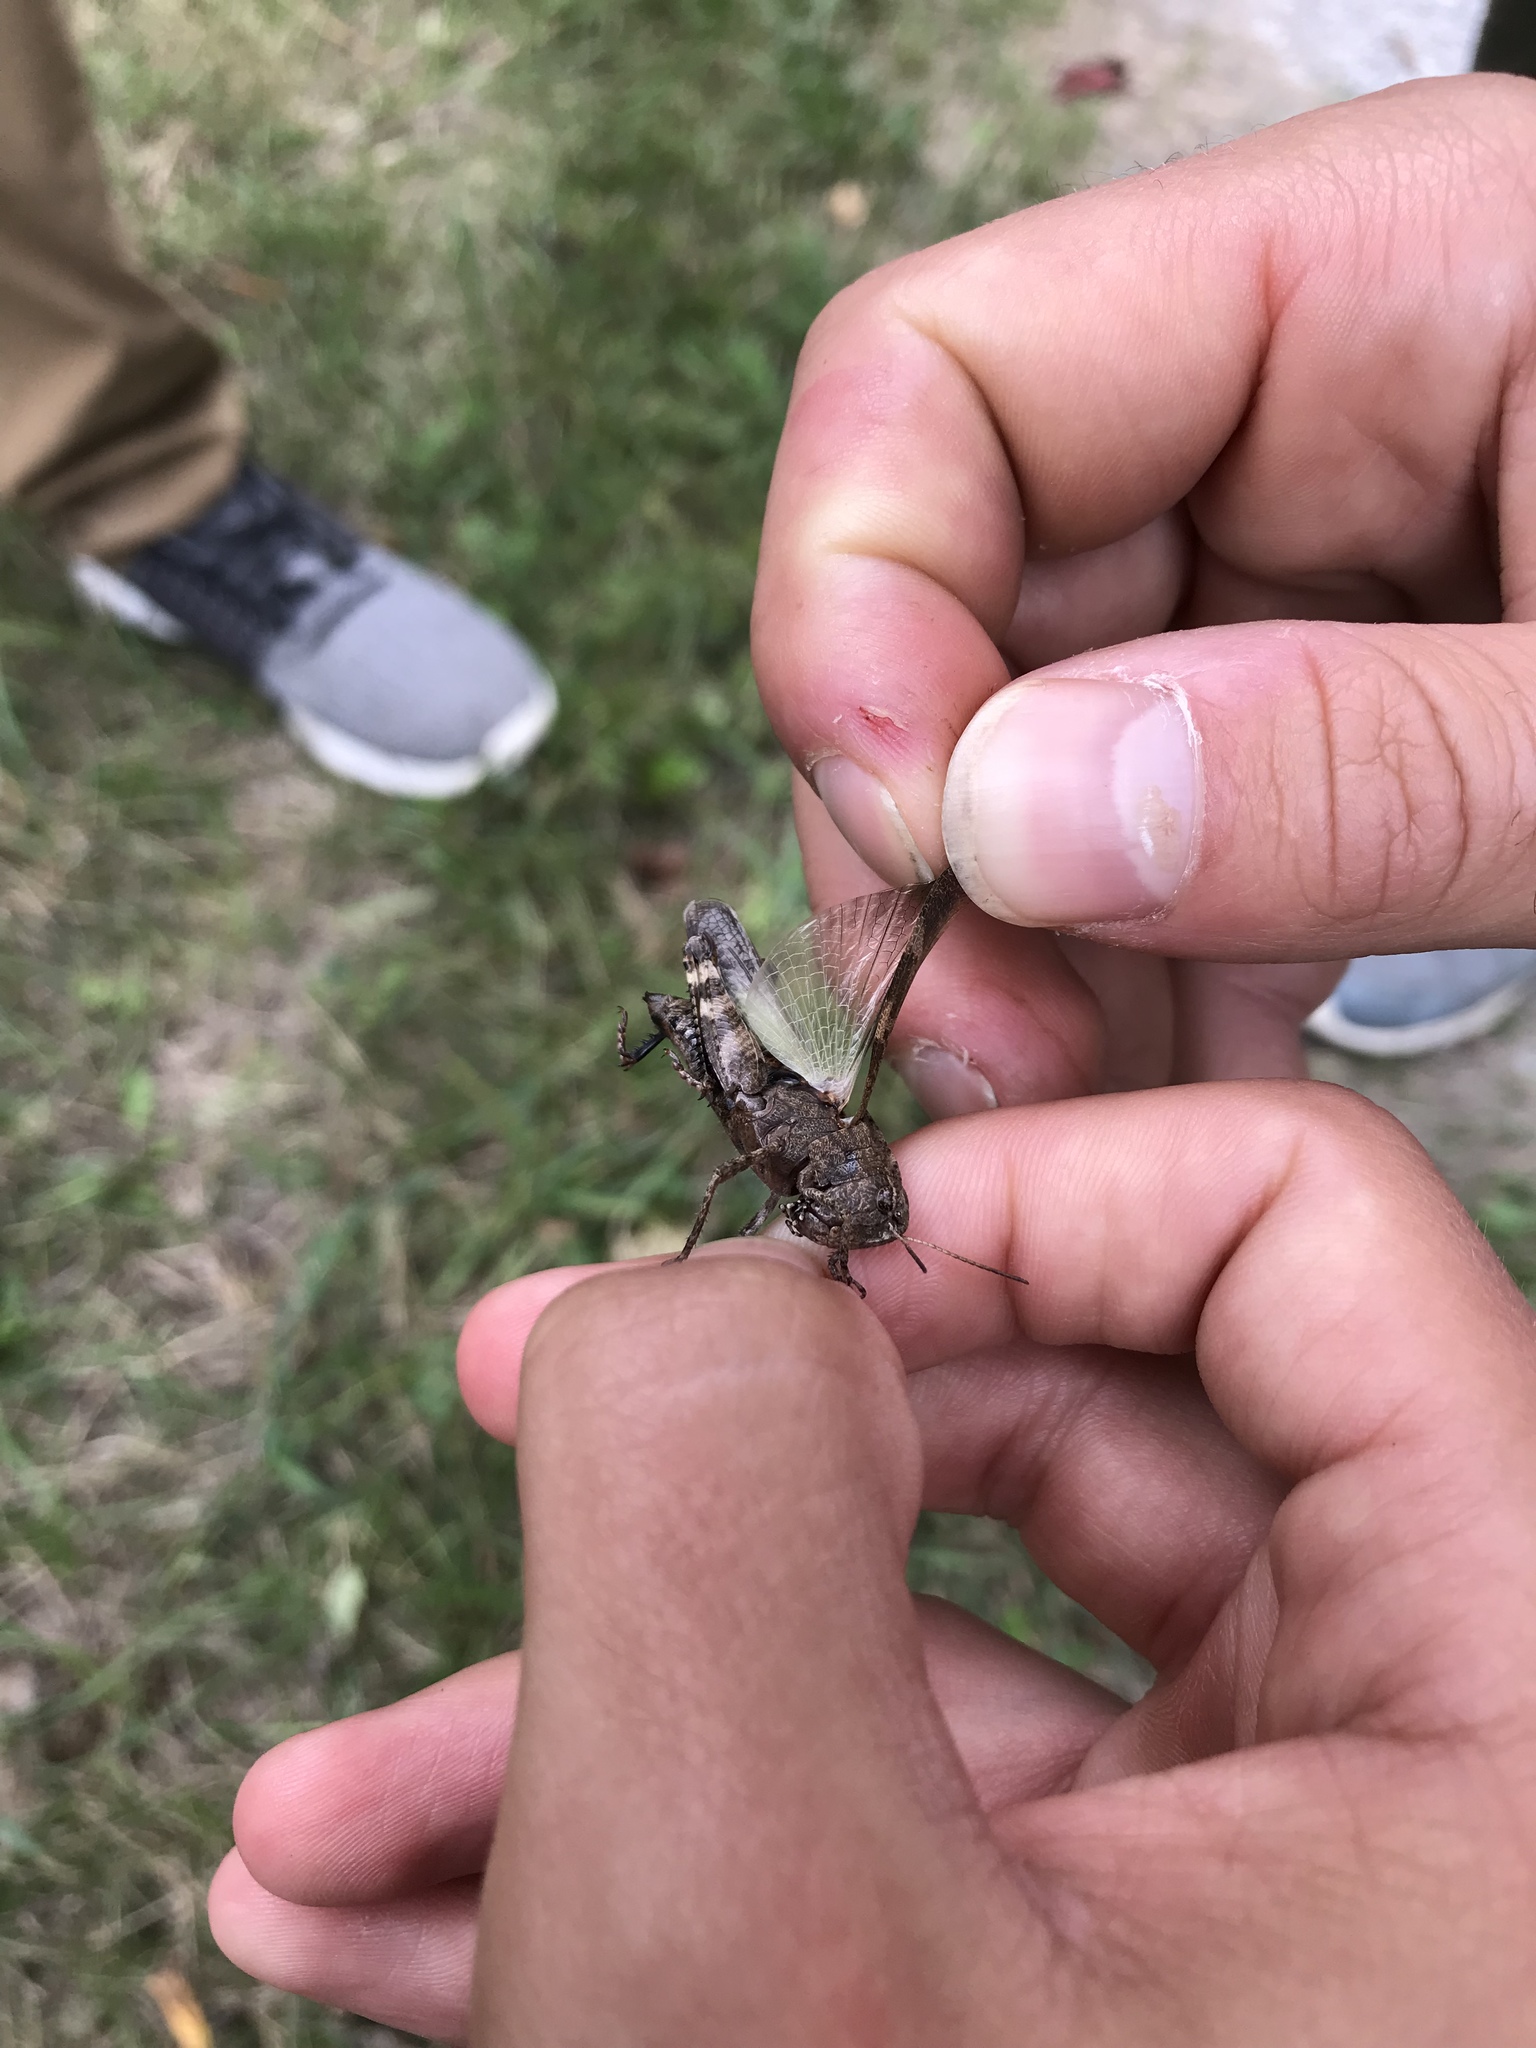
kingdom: Animalia
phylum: Arthropoda
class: Insecta
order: Orthoptera
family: Acrididae
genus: Encoptolophus
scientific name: Encoptolophus sordidus
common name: Dusky grasshopper
